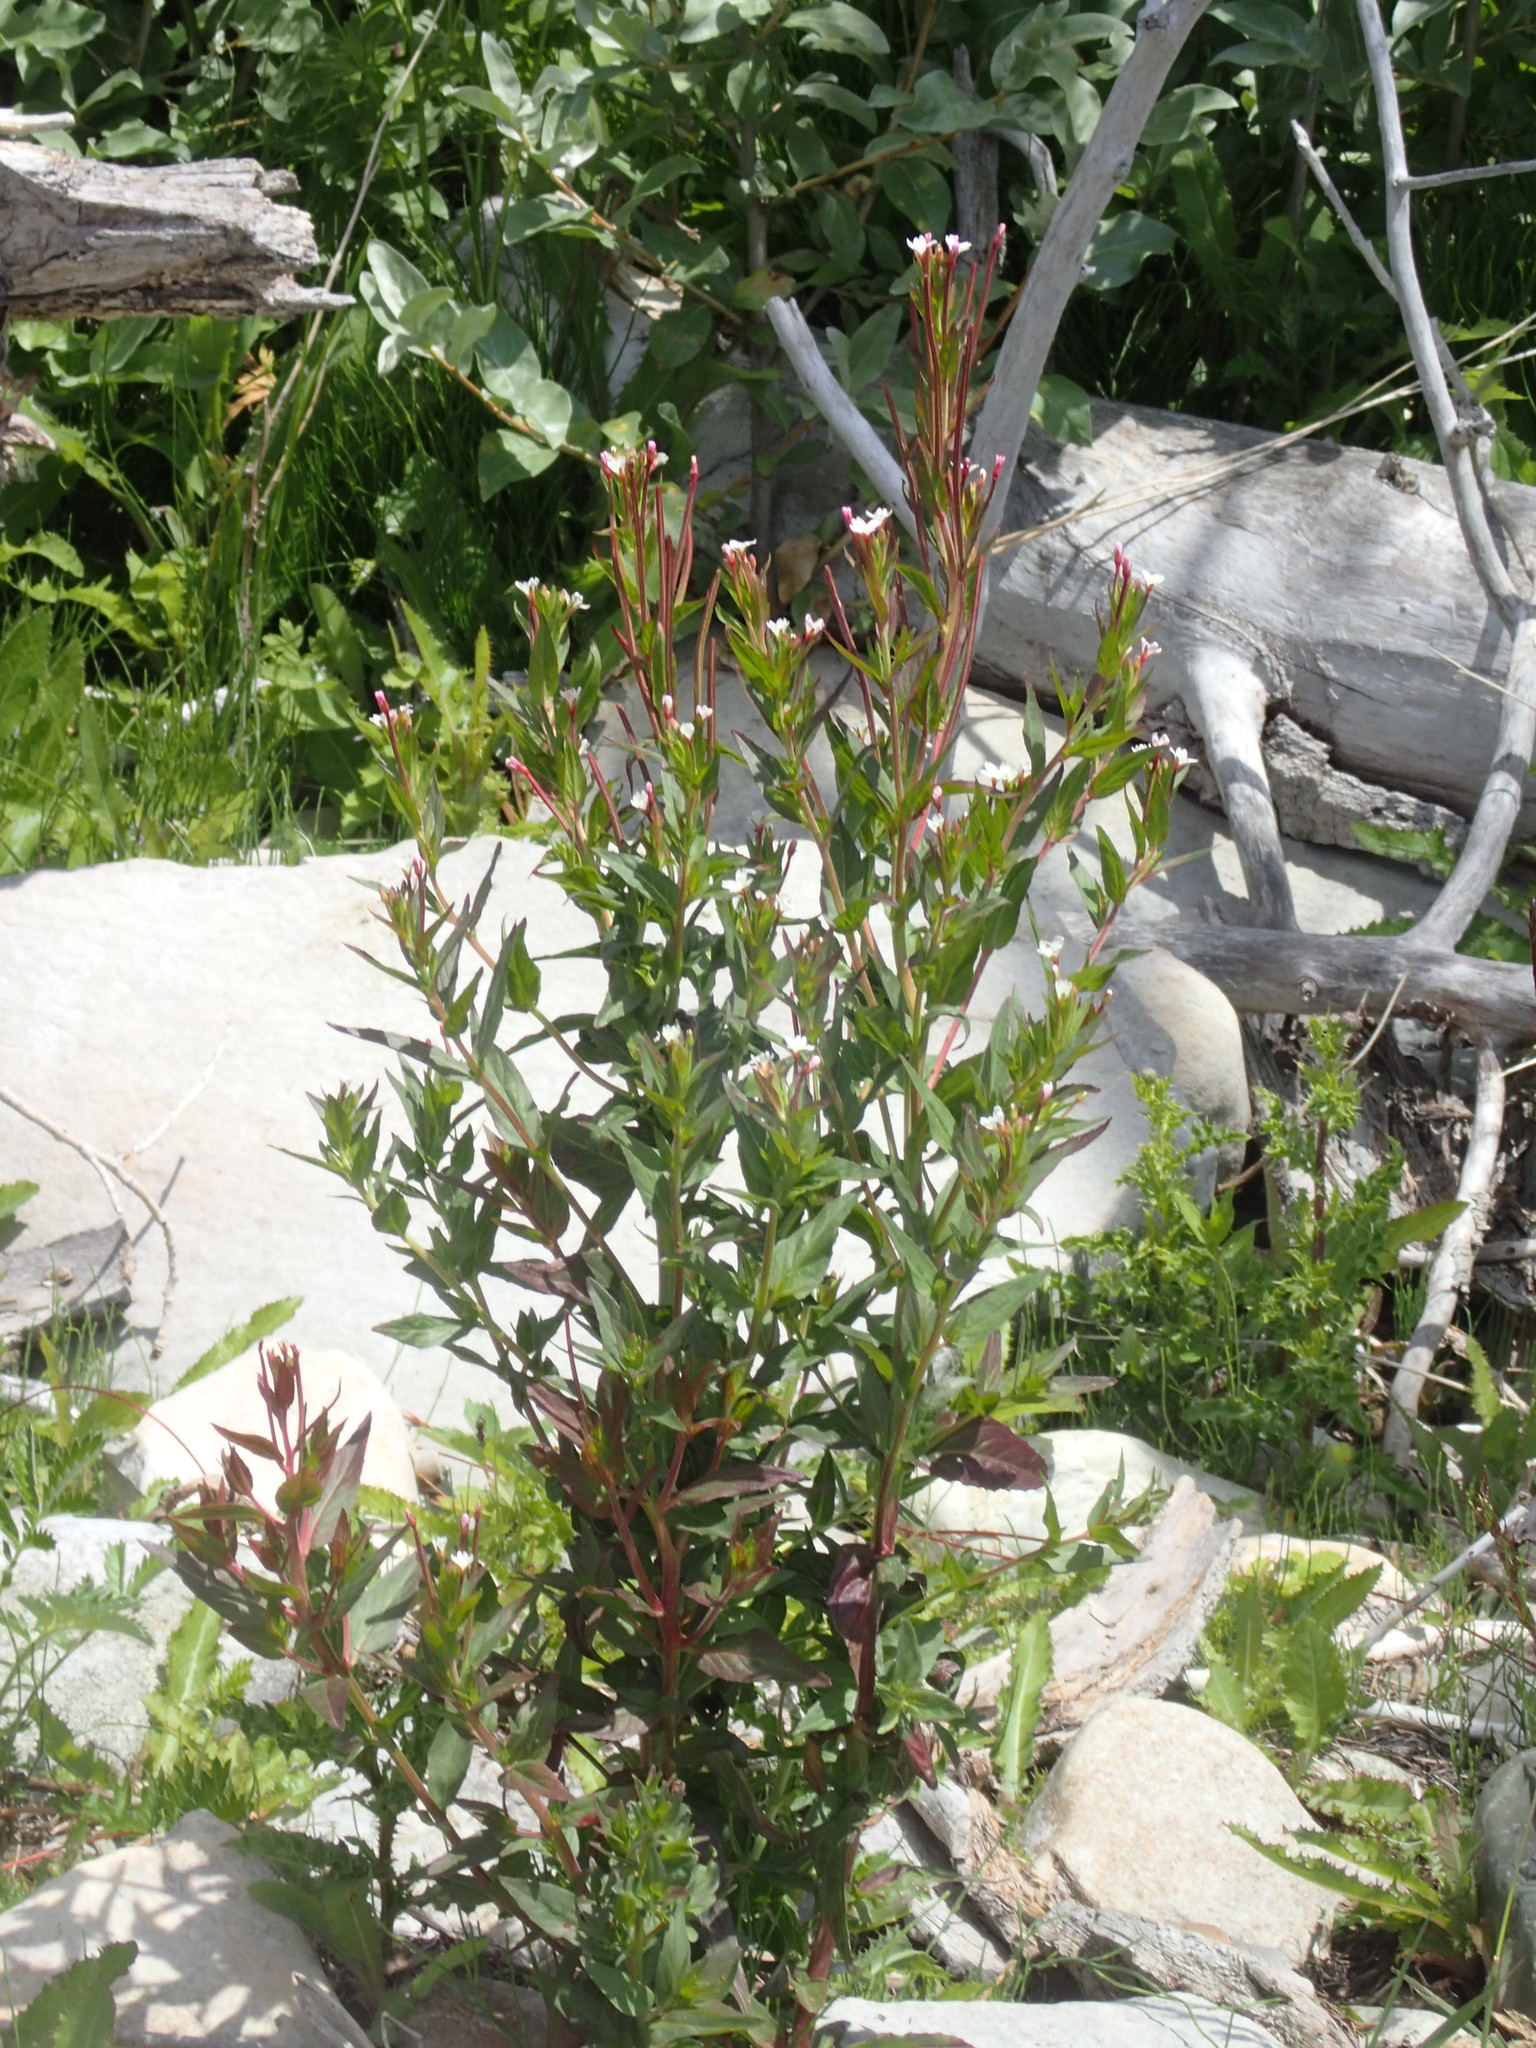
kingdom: Plantae
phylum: Tracheophyta
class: Magnoliopsida
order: Myrtales
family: Onagraceae
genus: Epilobium
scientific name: Epilobium ciliatum
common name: American willowherb
